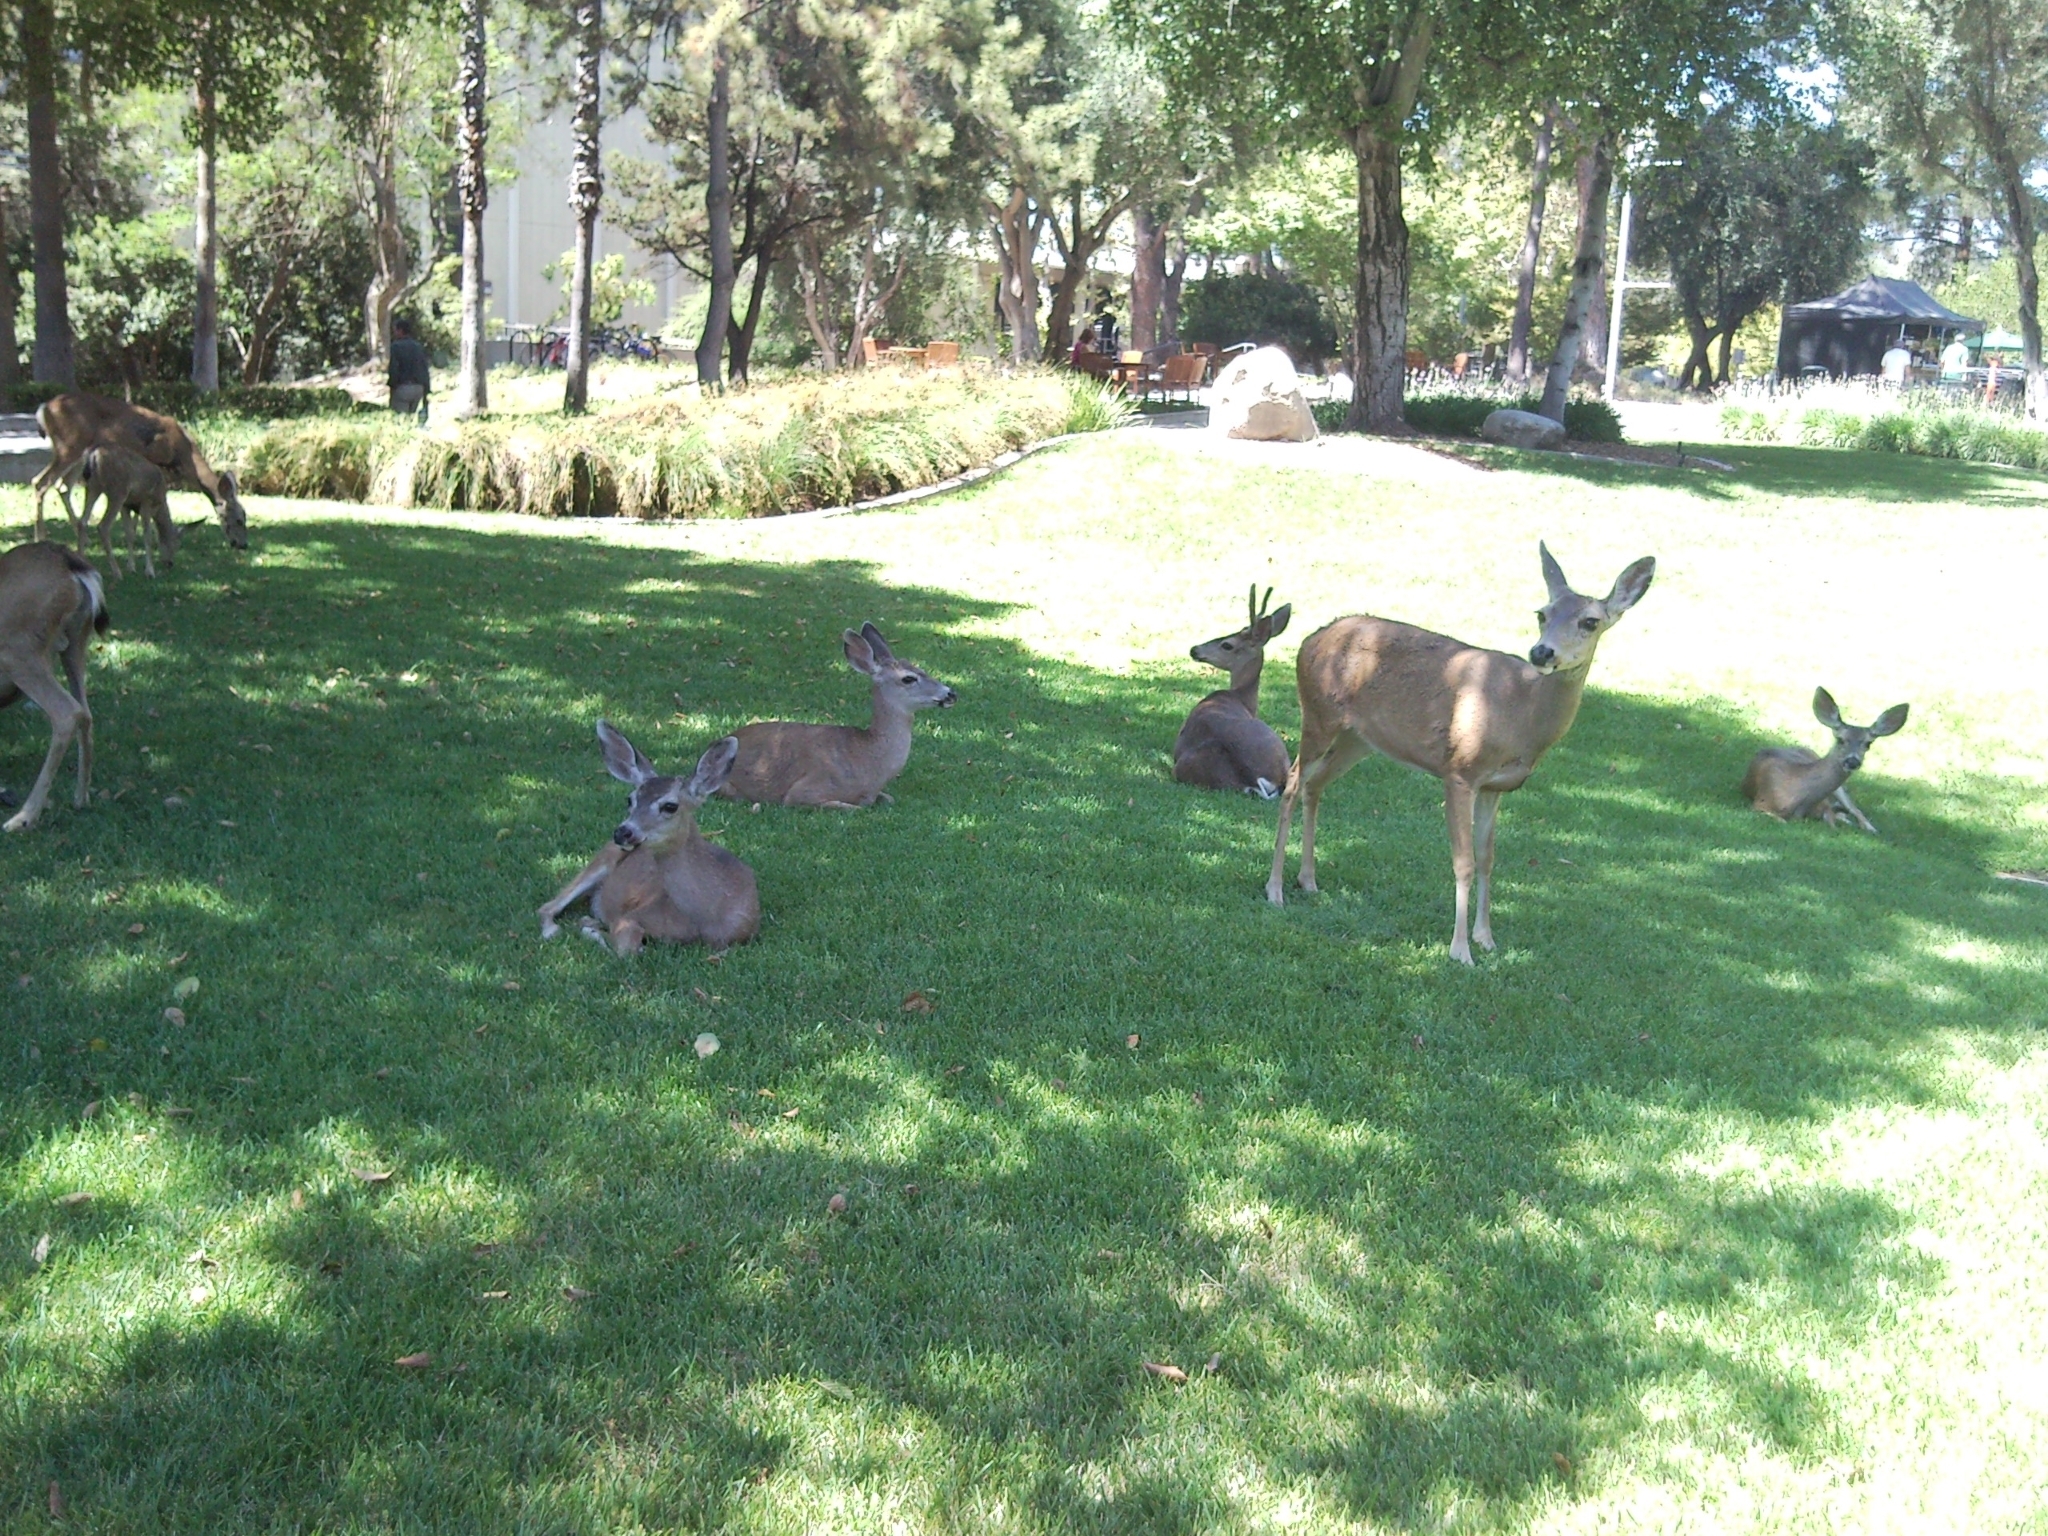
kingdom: Animalia
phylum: Chordata
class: Mammalia
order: Artiodactyla
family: Cervidae
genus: Odocoileus
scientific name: Odocoileus hemionus
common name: Mule deer
